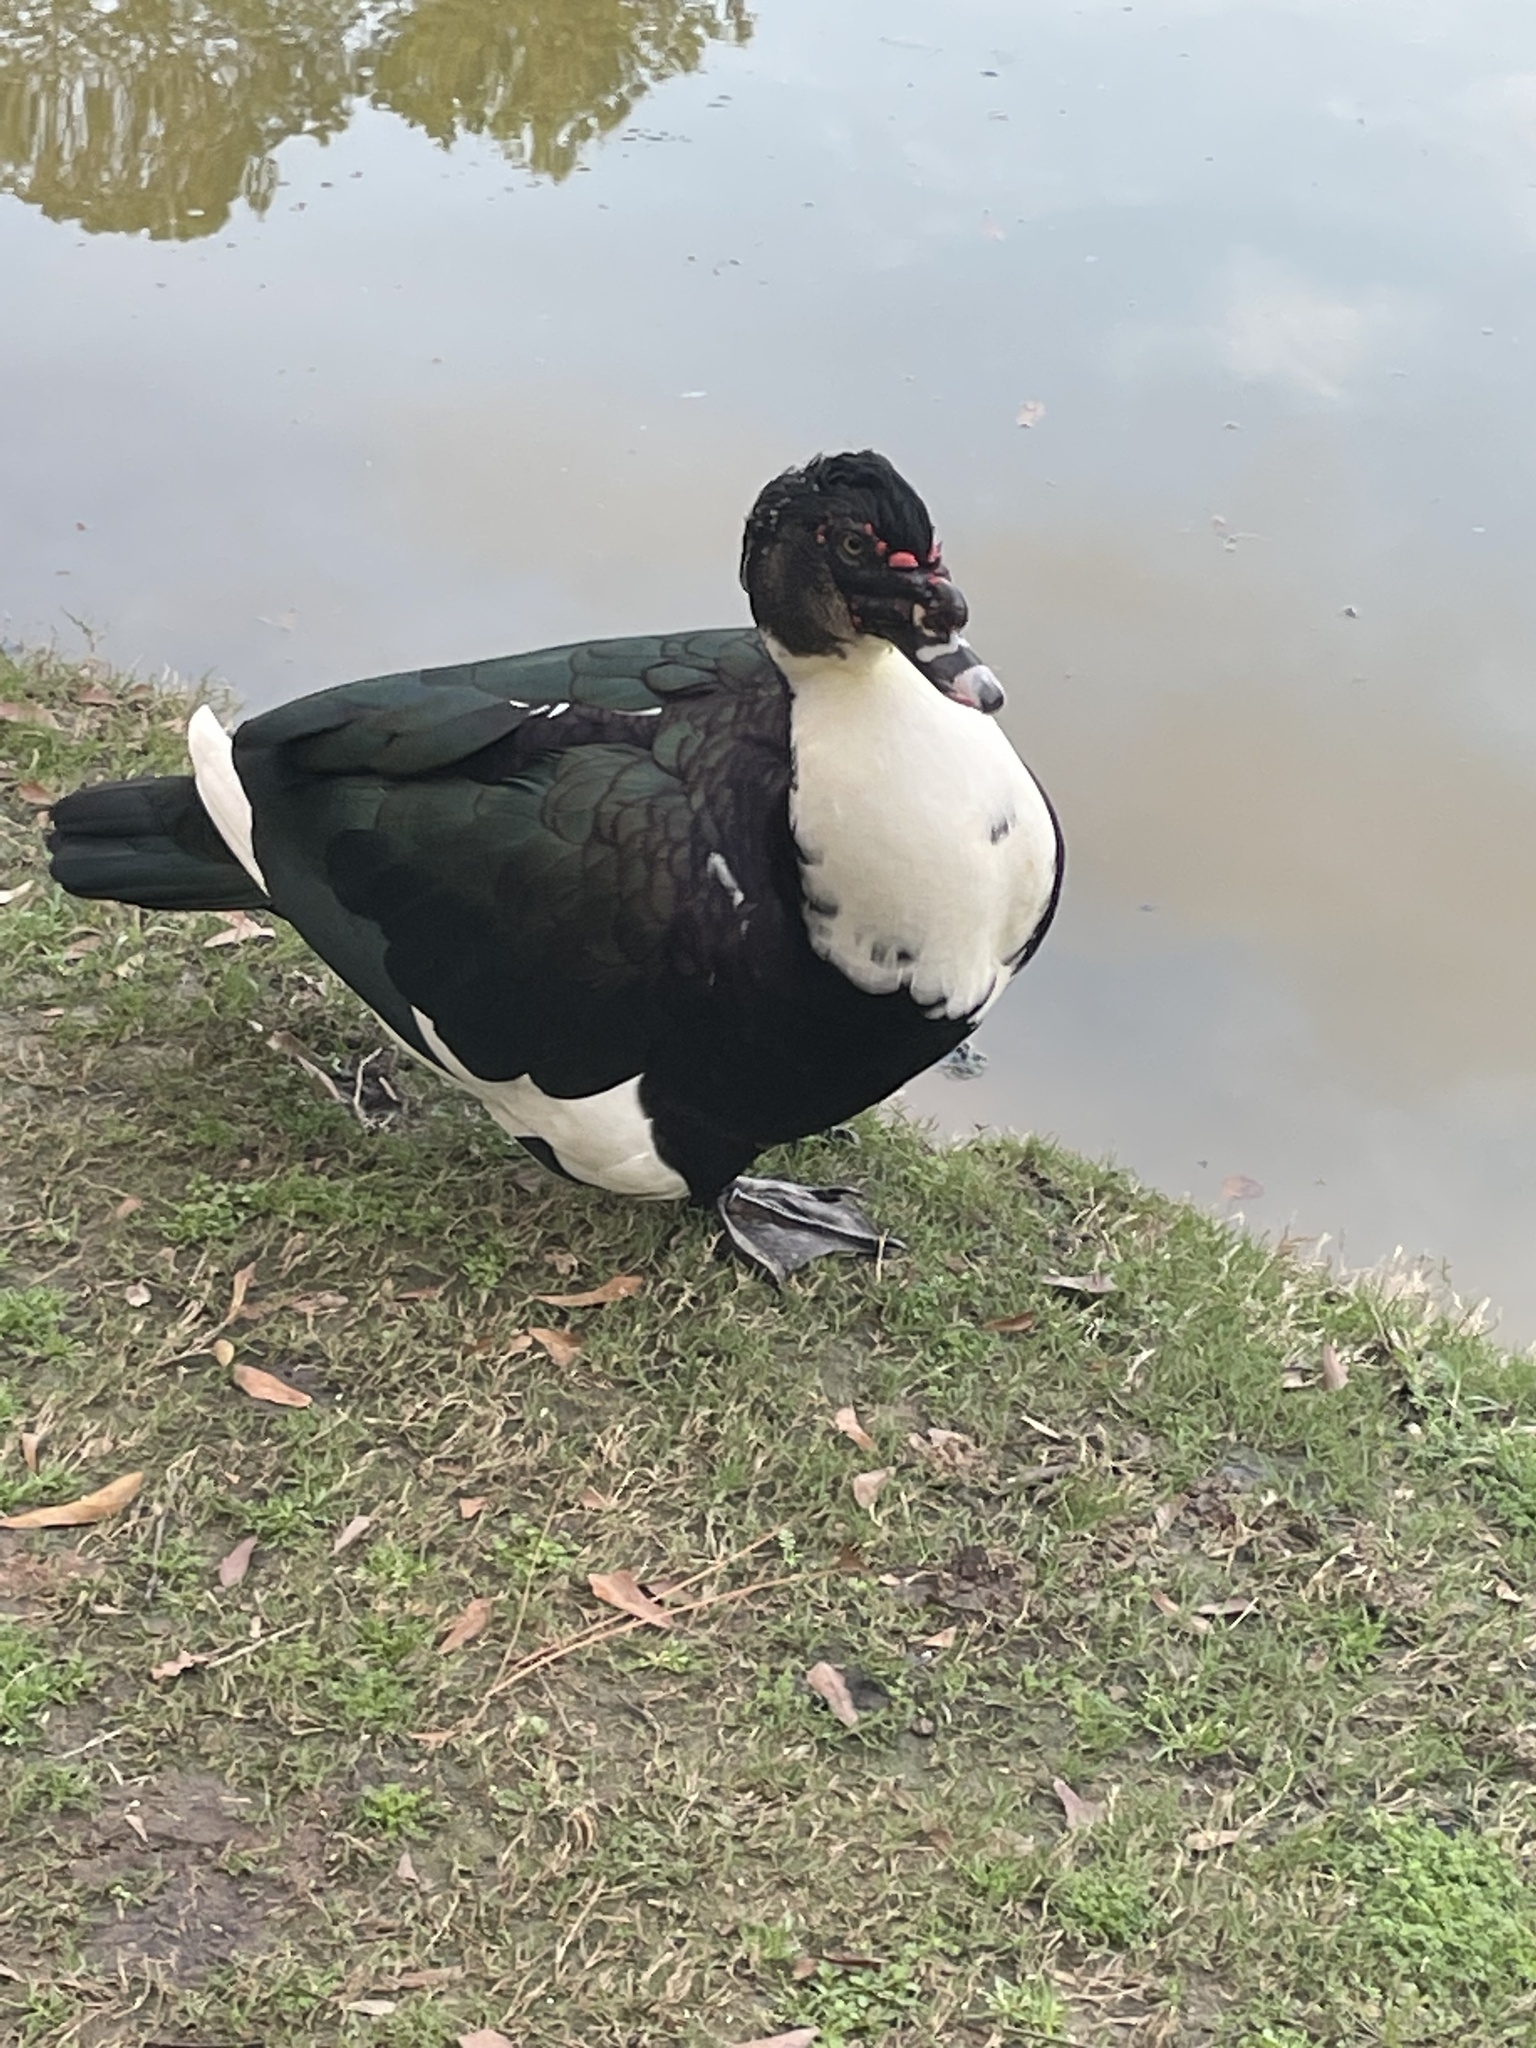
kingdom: Animalia
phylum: Chordata
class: Aves
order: Anseriformes
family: Anatidae
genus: Cairina
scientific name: Cairina moschata
